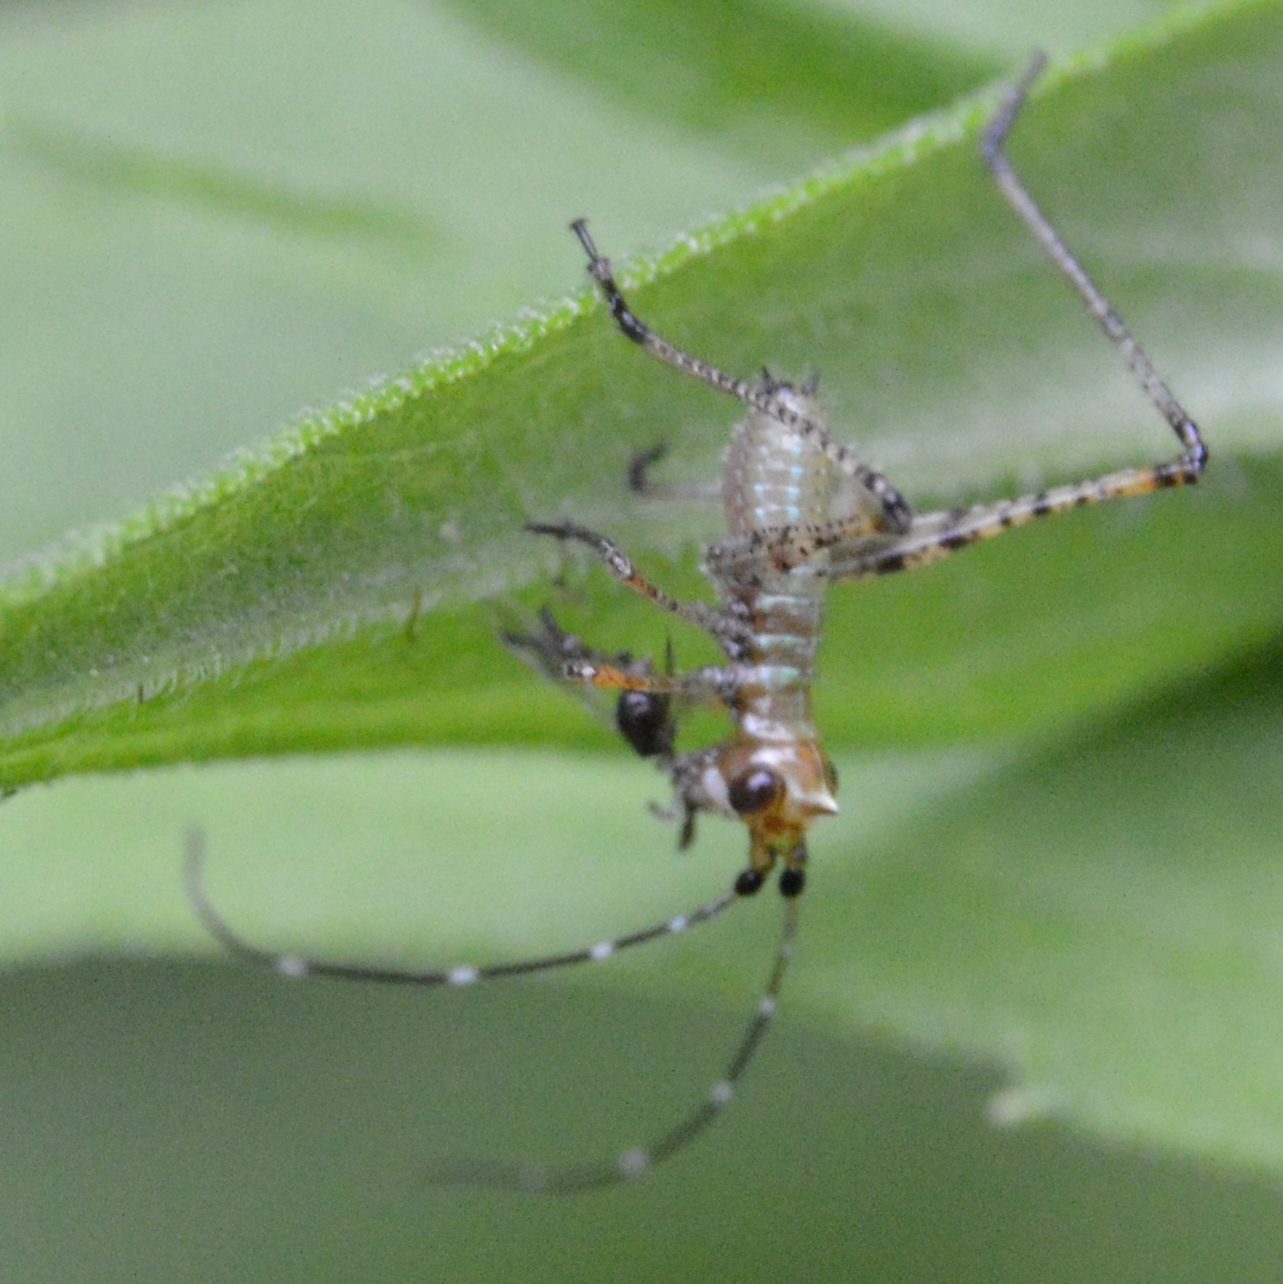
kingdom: Animalia
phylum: Arthropoda
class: Insecta
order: Orthoptera
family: Tettigoniidae
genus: Scudderia
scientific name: Scudderia
